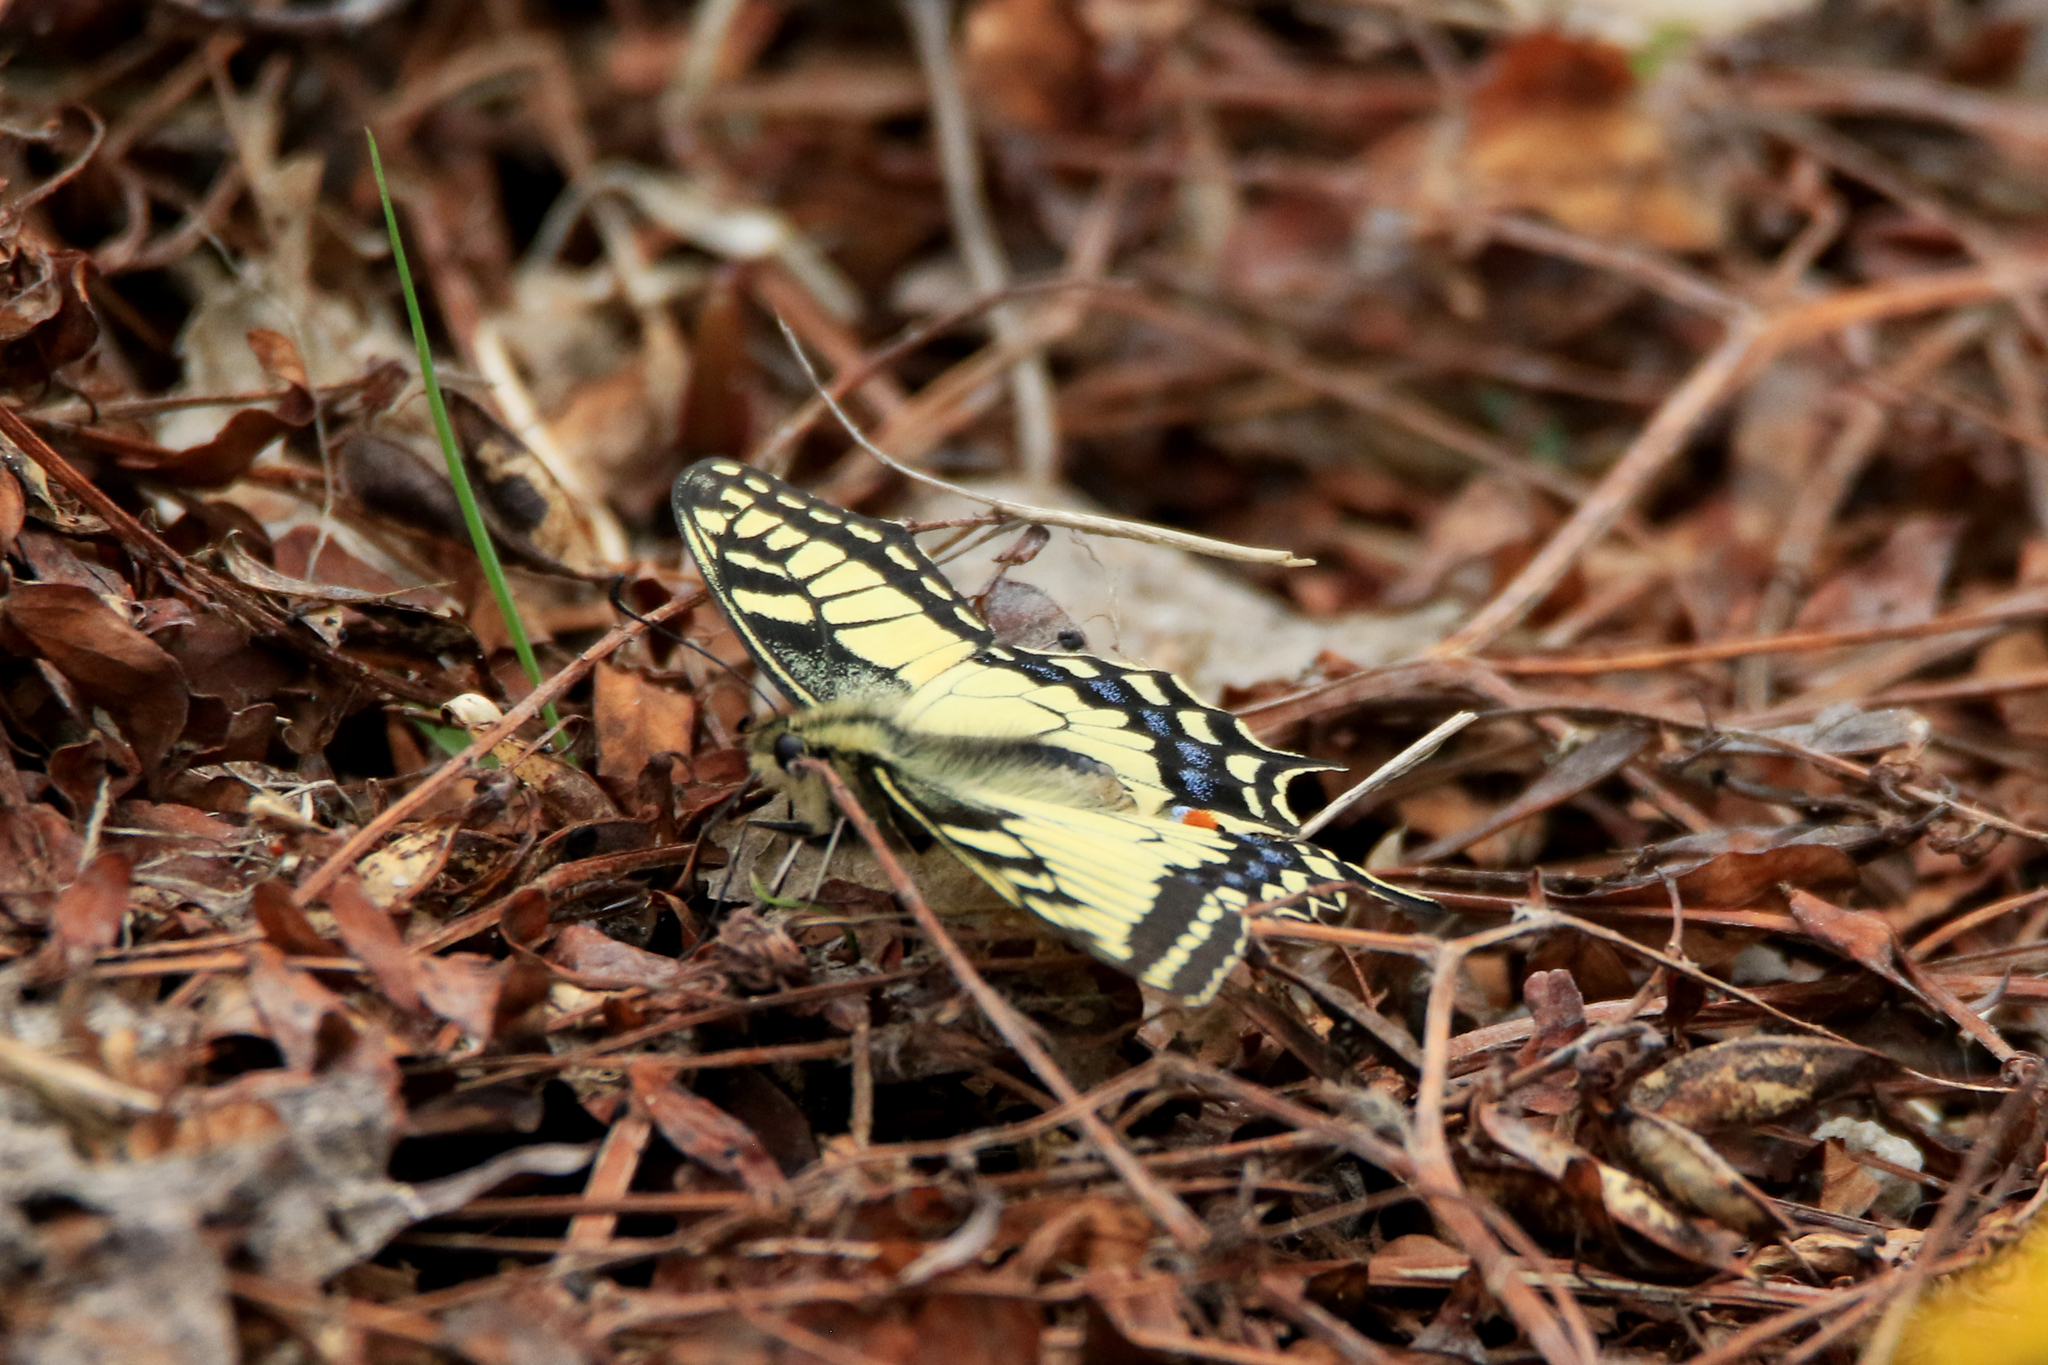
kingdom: Animalia
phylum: Arthropoda
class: Insecta
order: Lepidoptera
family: Papilionidae
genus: Papilio
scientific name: Papilio machaon
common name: Swallowtail
